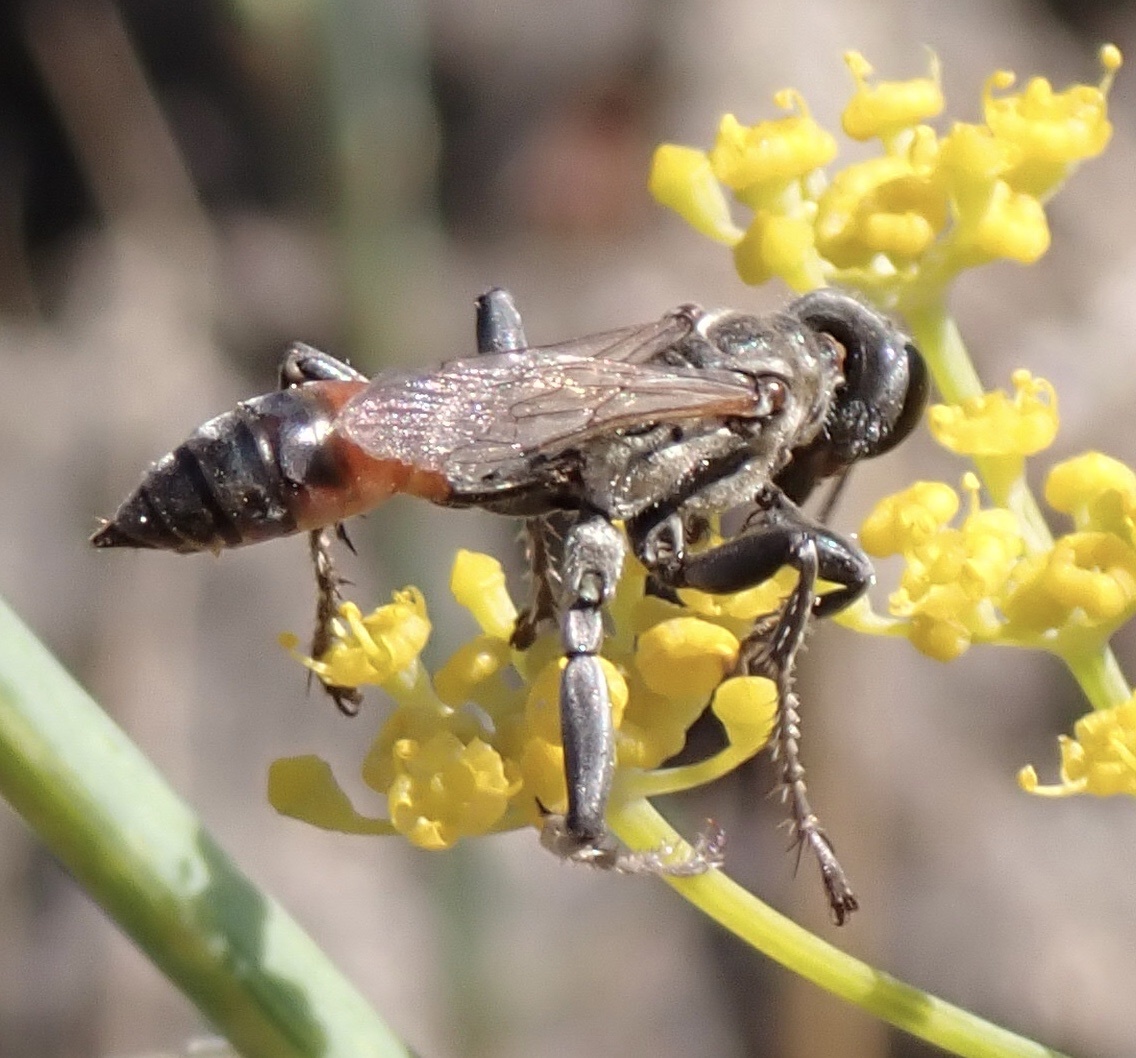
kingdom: Animalia
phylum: Arthropoda
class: Insecta
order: Hymenoptera
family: Sphecidae
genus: Prionyx
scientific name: Prionyx lividocinctus
